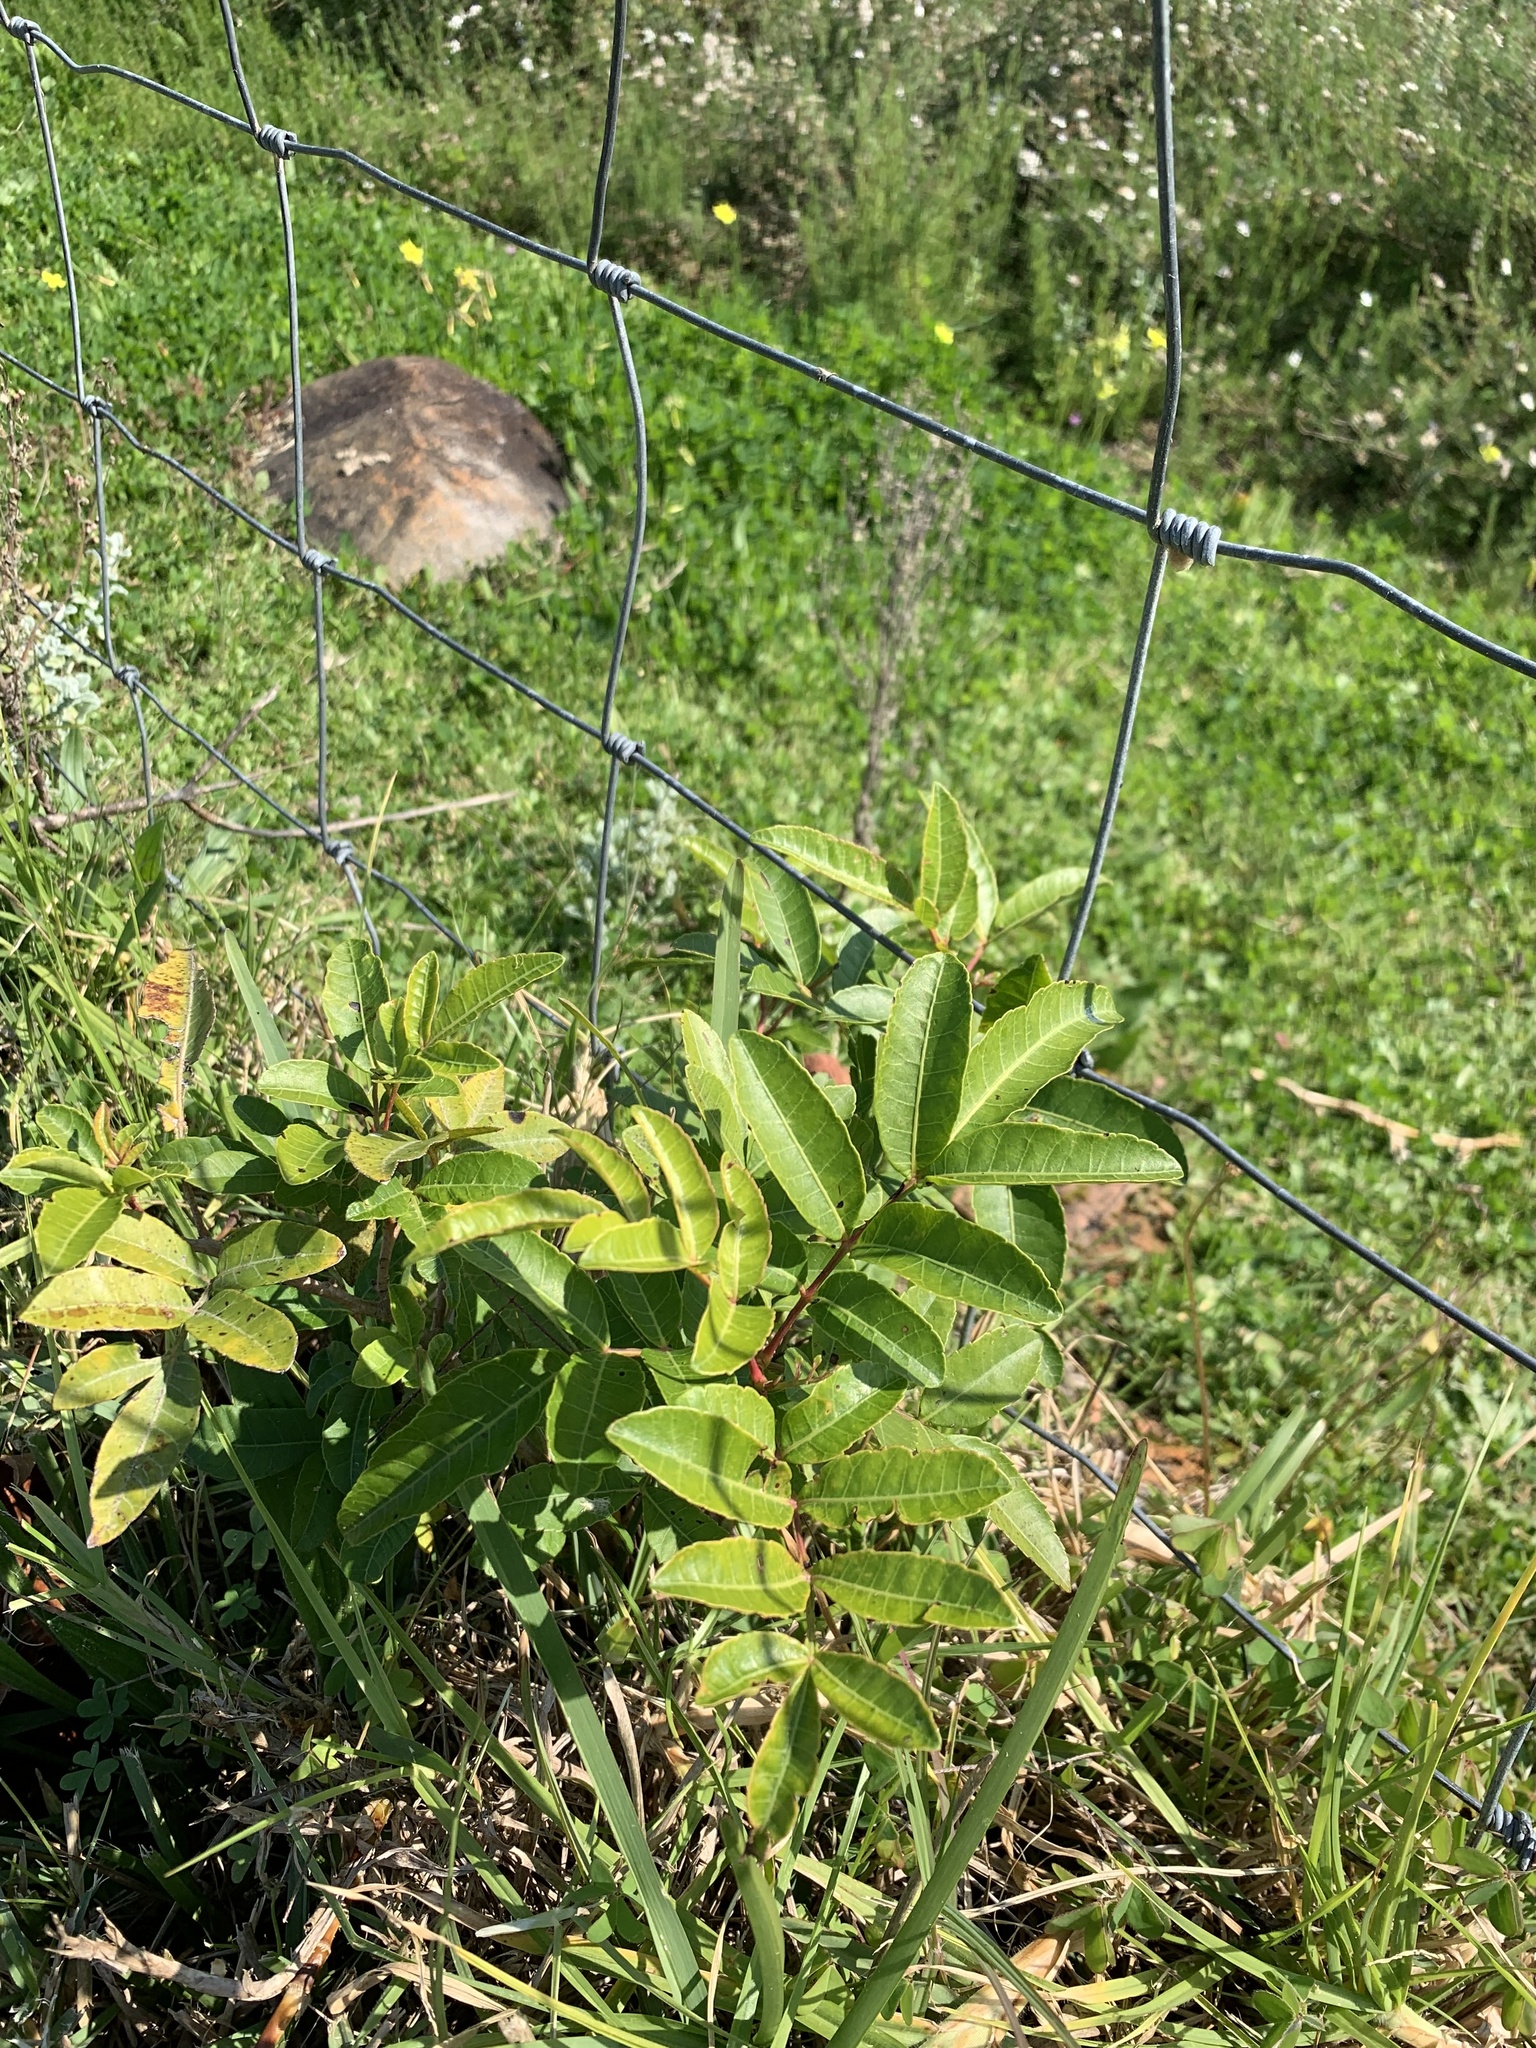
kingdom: Plantae
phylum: Tracheophyta
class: Magnoliopsida
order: Sapindales
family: Anacardiaceae
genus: Schinus
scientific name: Schinus terebinthifolia
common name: Brazilian peppertree
